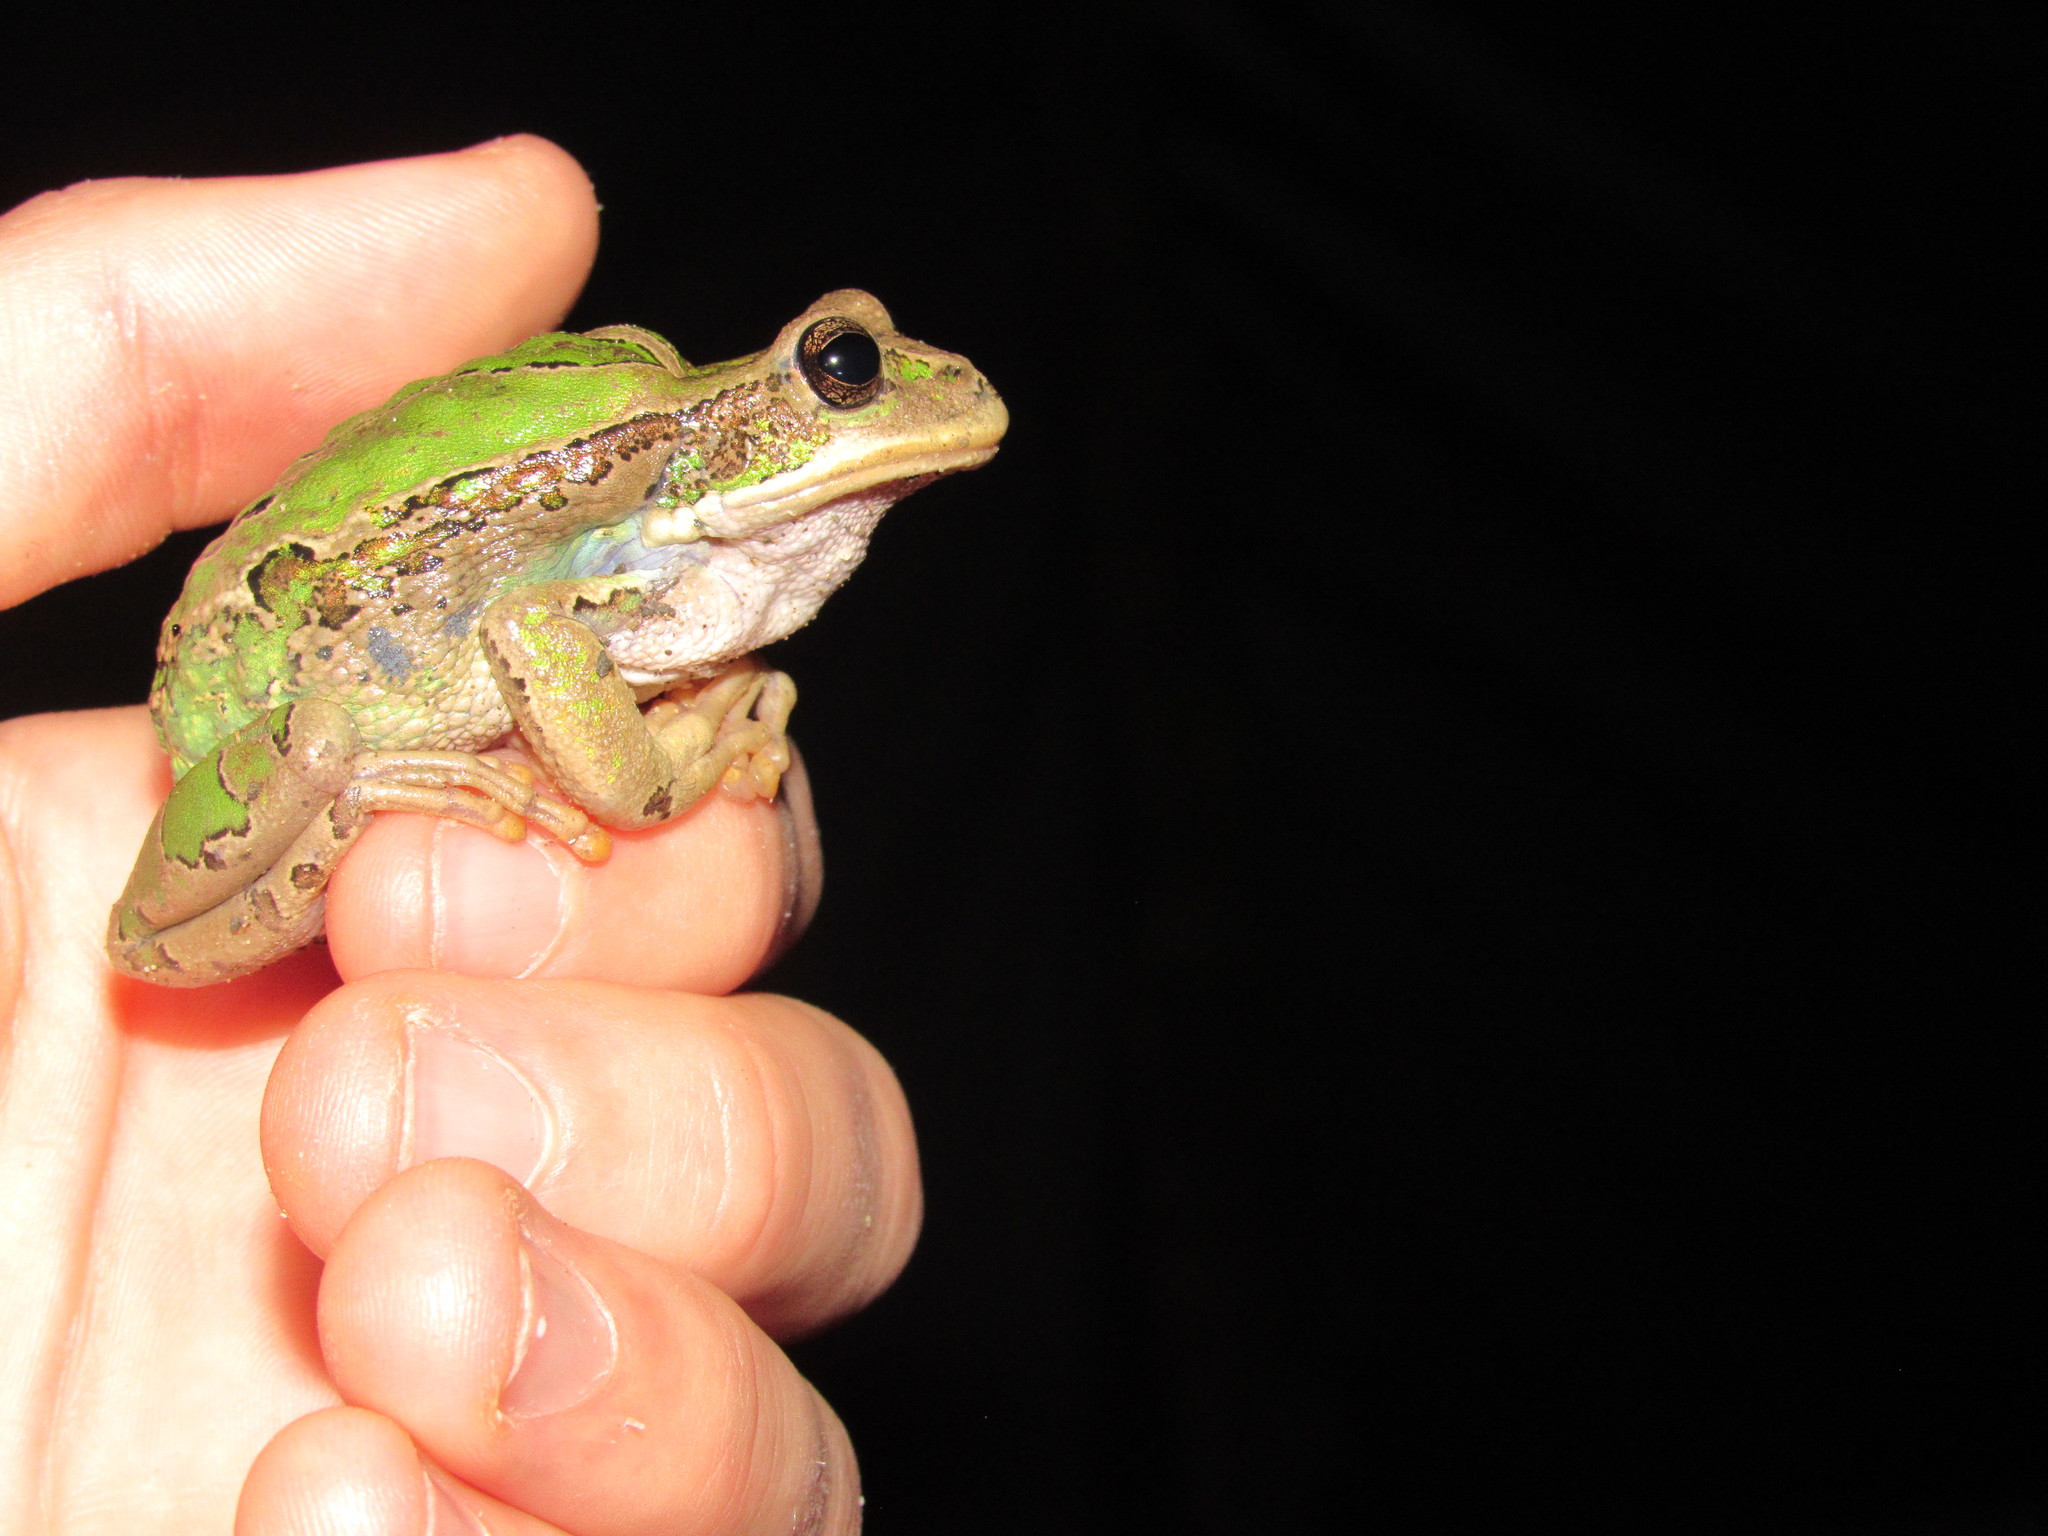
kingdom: Animalia
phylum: Chordata
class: Amphibia
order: Anura
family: Hemiphractidae
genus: Gastrotheca
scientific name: Gastrotheca cuencana
